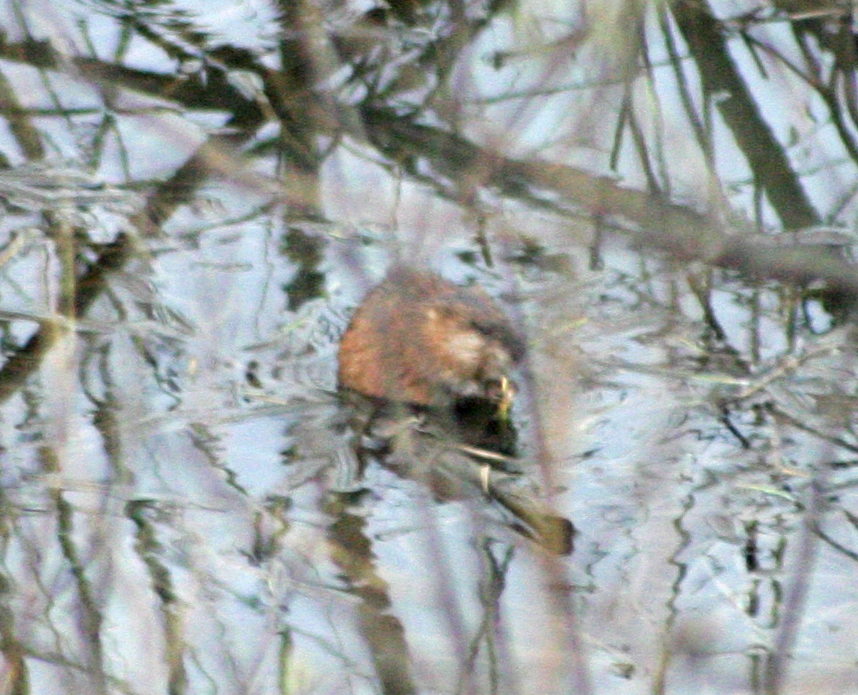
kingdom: Animalia
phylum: Chordata
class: Mammalia
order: Rodentia
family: Cricetidae
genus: Ondatra
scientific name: Ondatra zibethicus
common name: Muskrat
